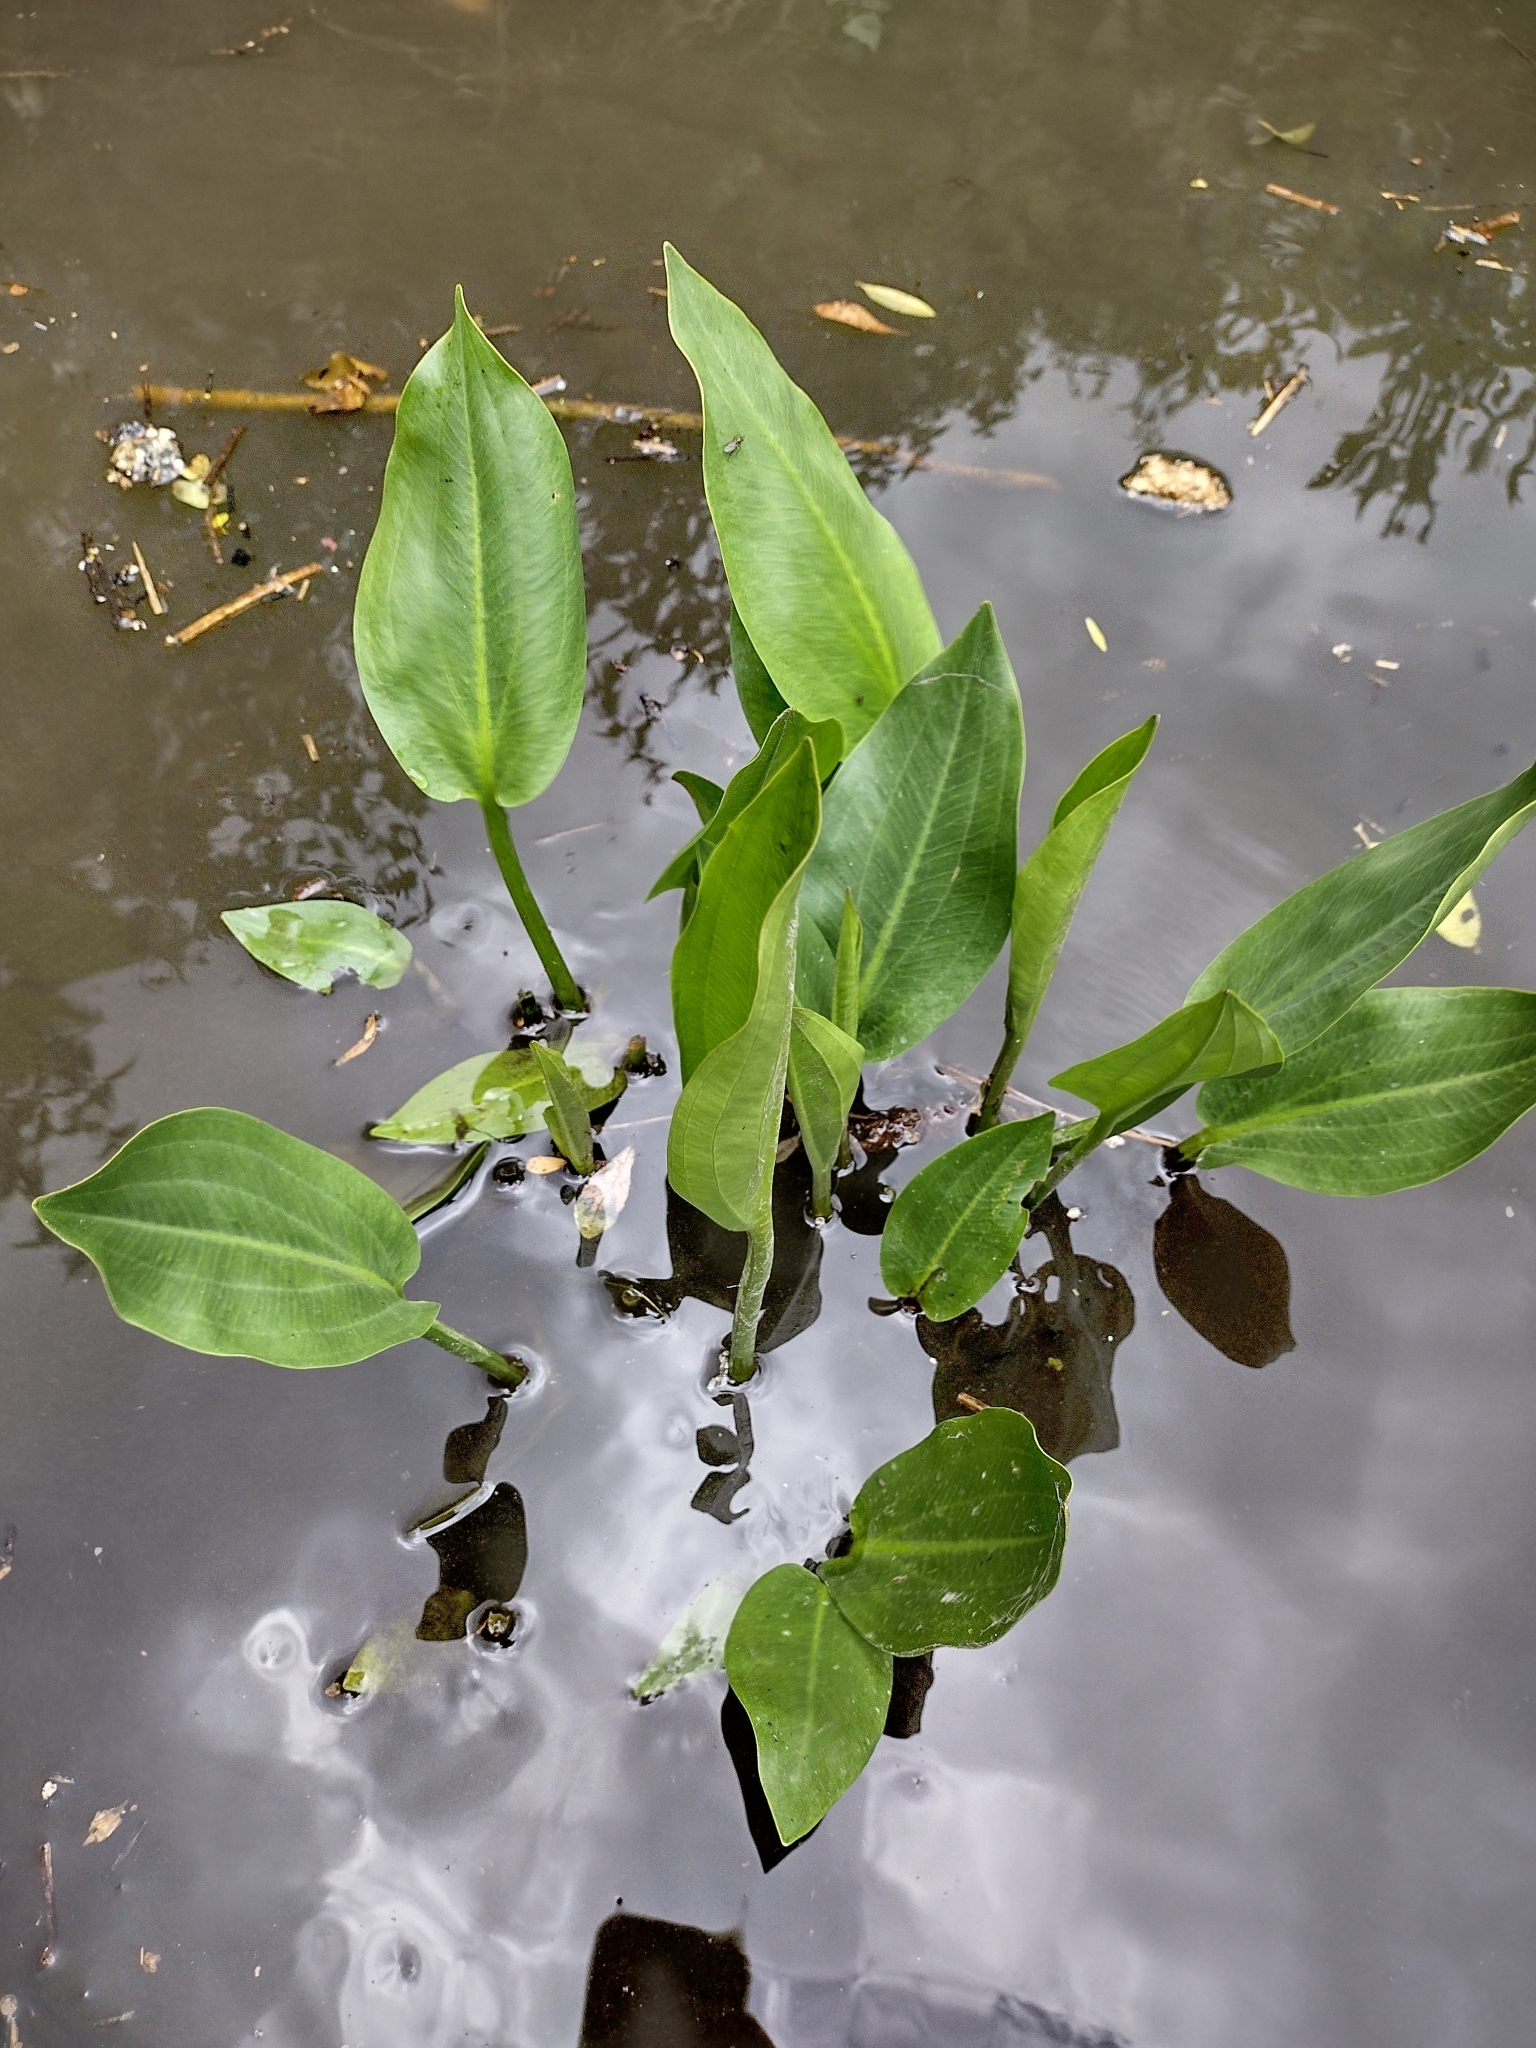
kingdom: Plantae
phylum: Tracheophyta
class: Liliopsida
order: Alismatales
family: Alismataceae
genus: Alisma
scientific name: Alisma plantago-aquatica
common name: Water-plantain
